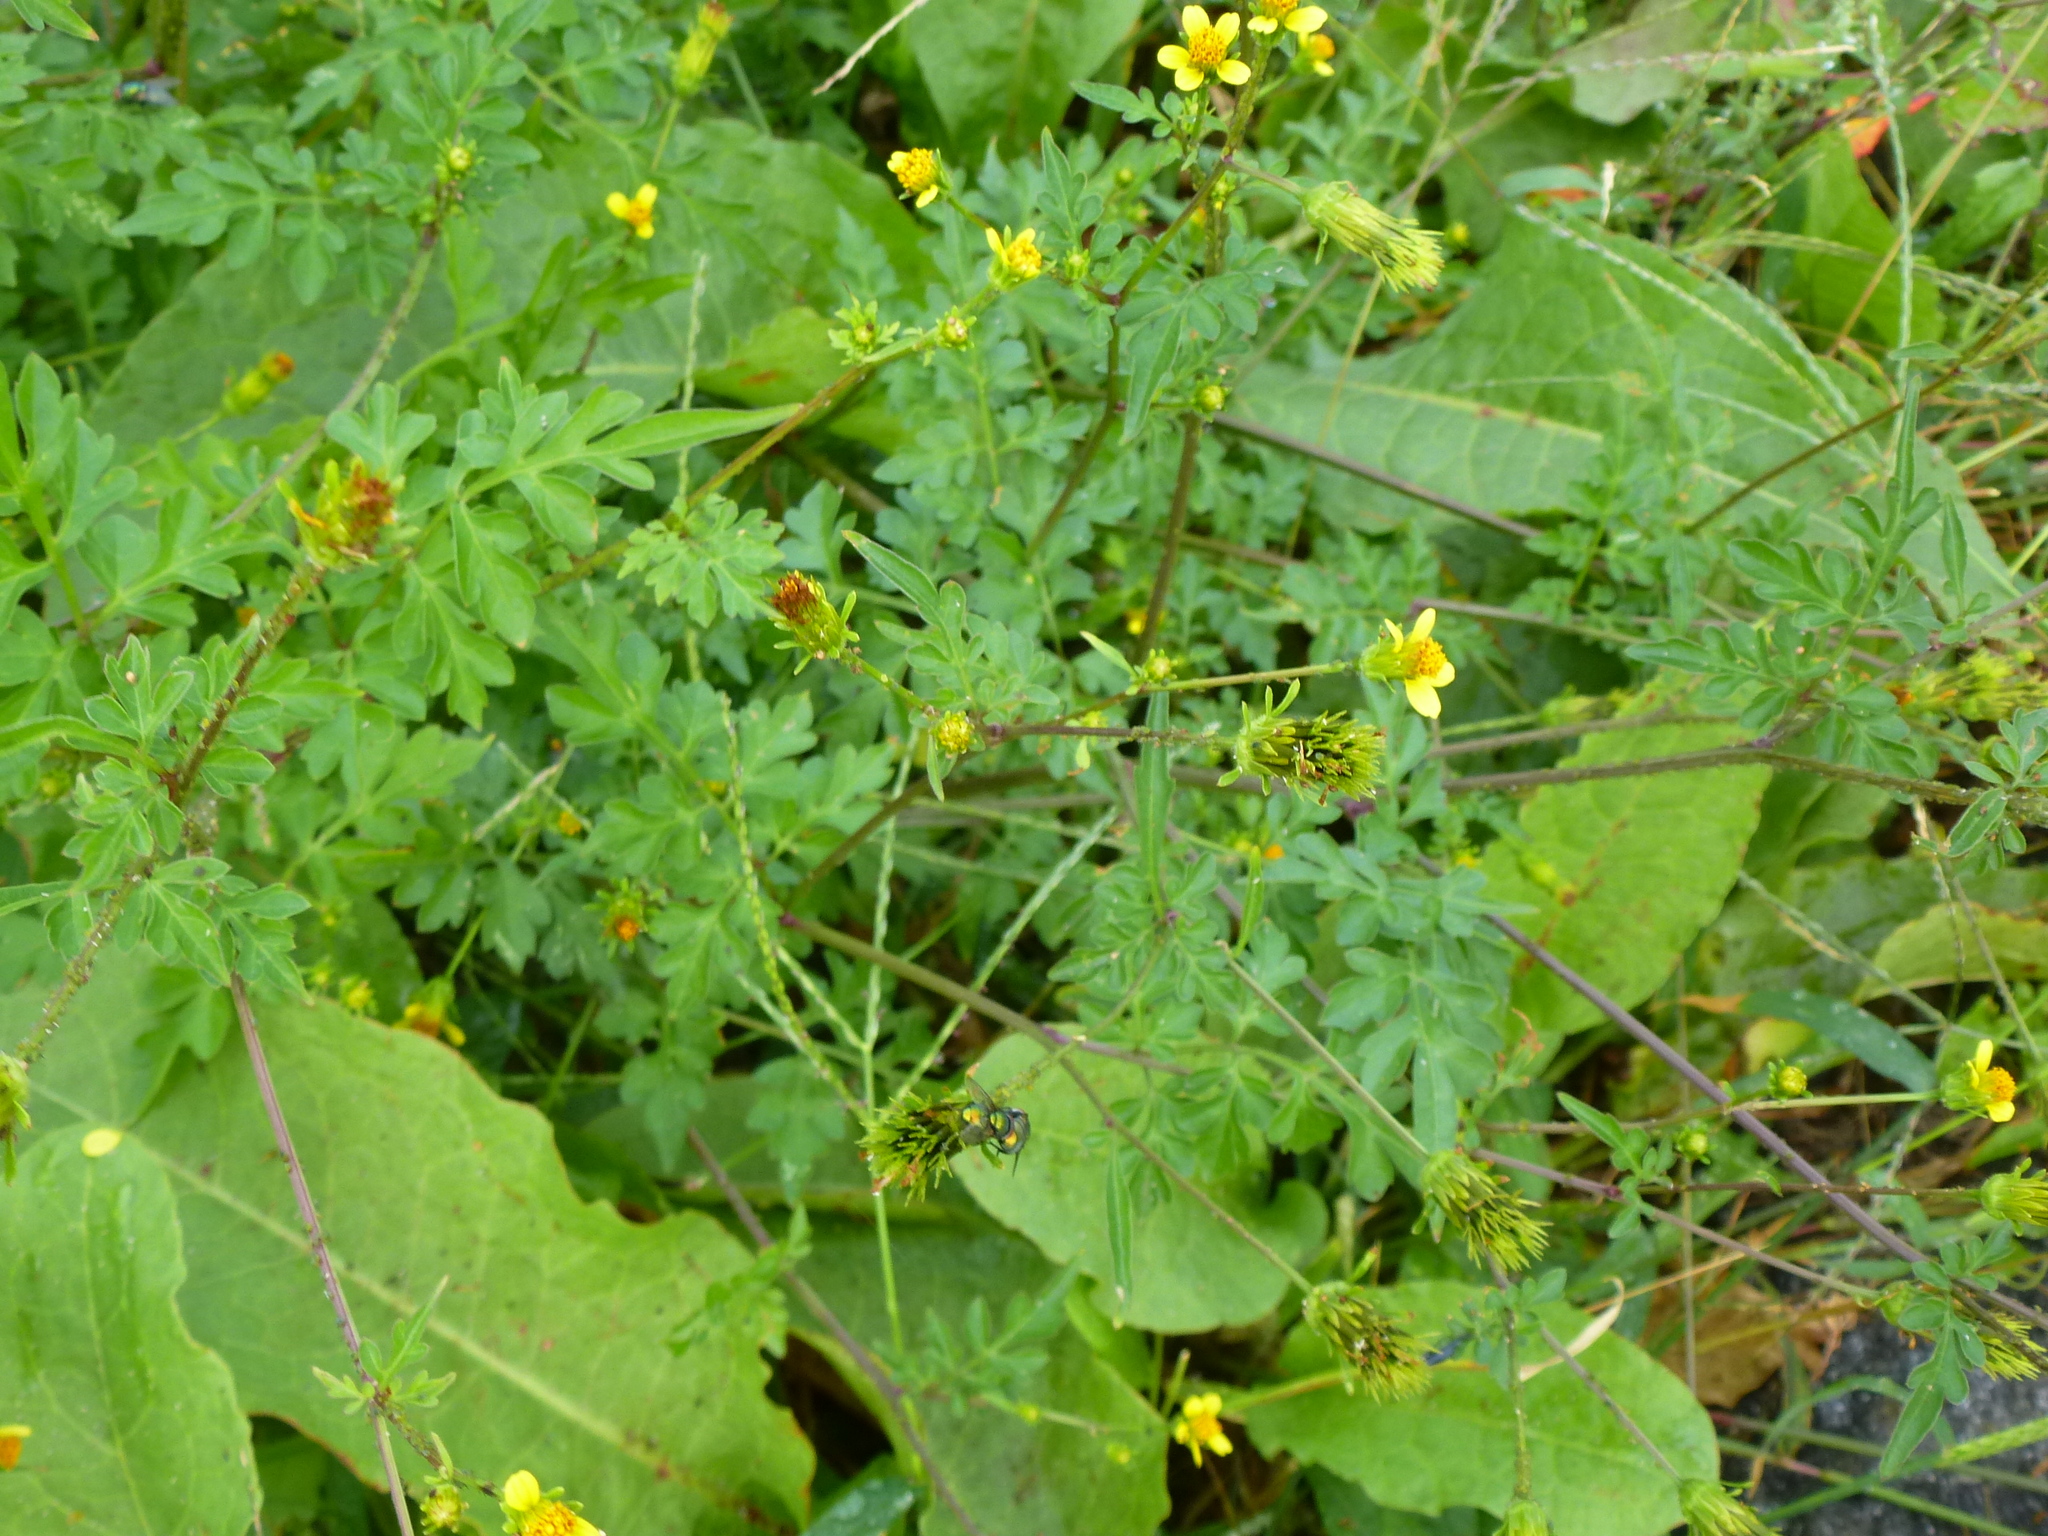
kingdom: Plantae
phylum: Tracheophyta
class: Magnoliopsida
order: Asterales
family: Asteraceae
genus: Bidens
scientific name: Bidens bipinnata
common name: Spanish-needles
